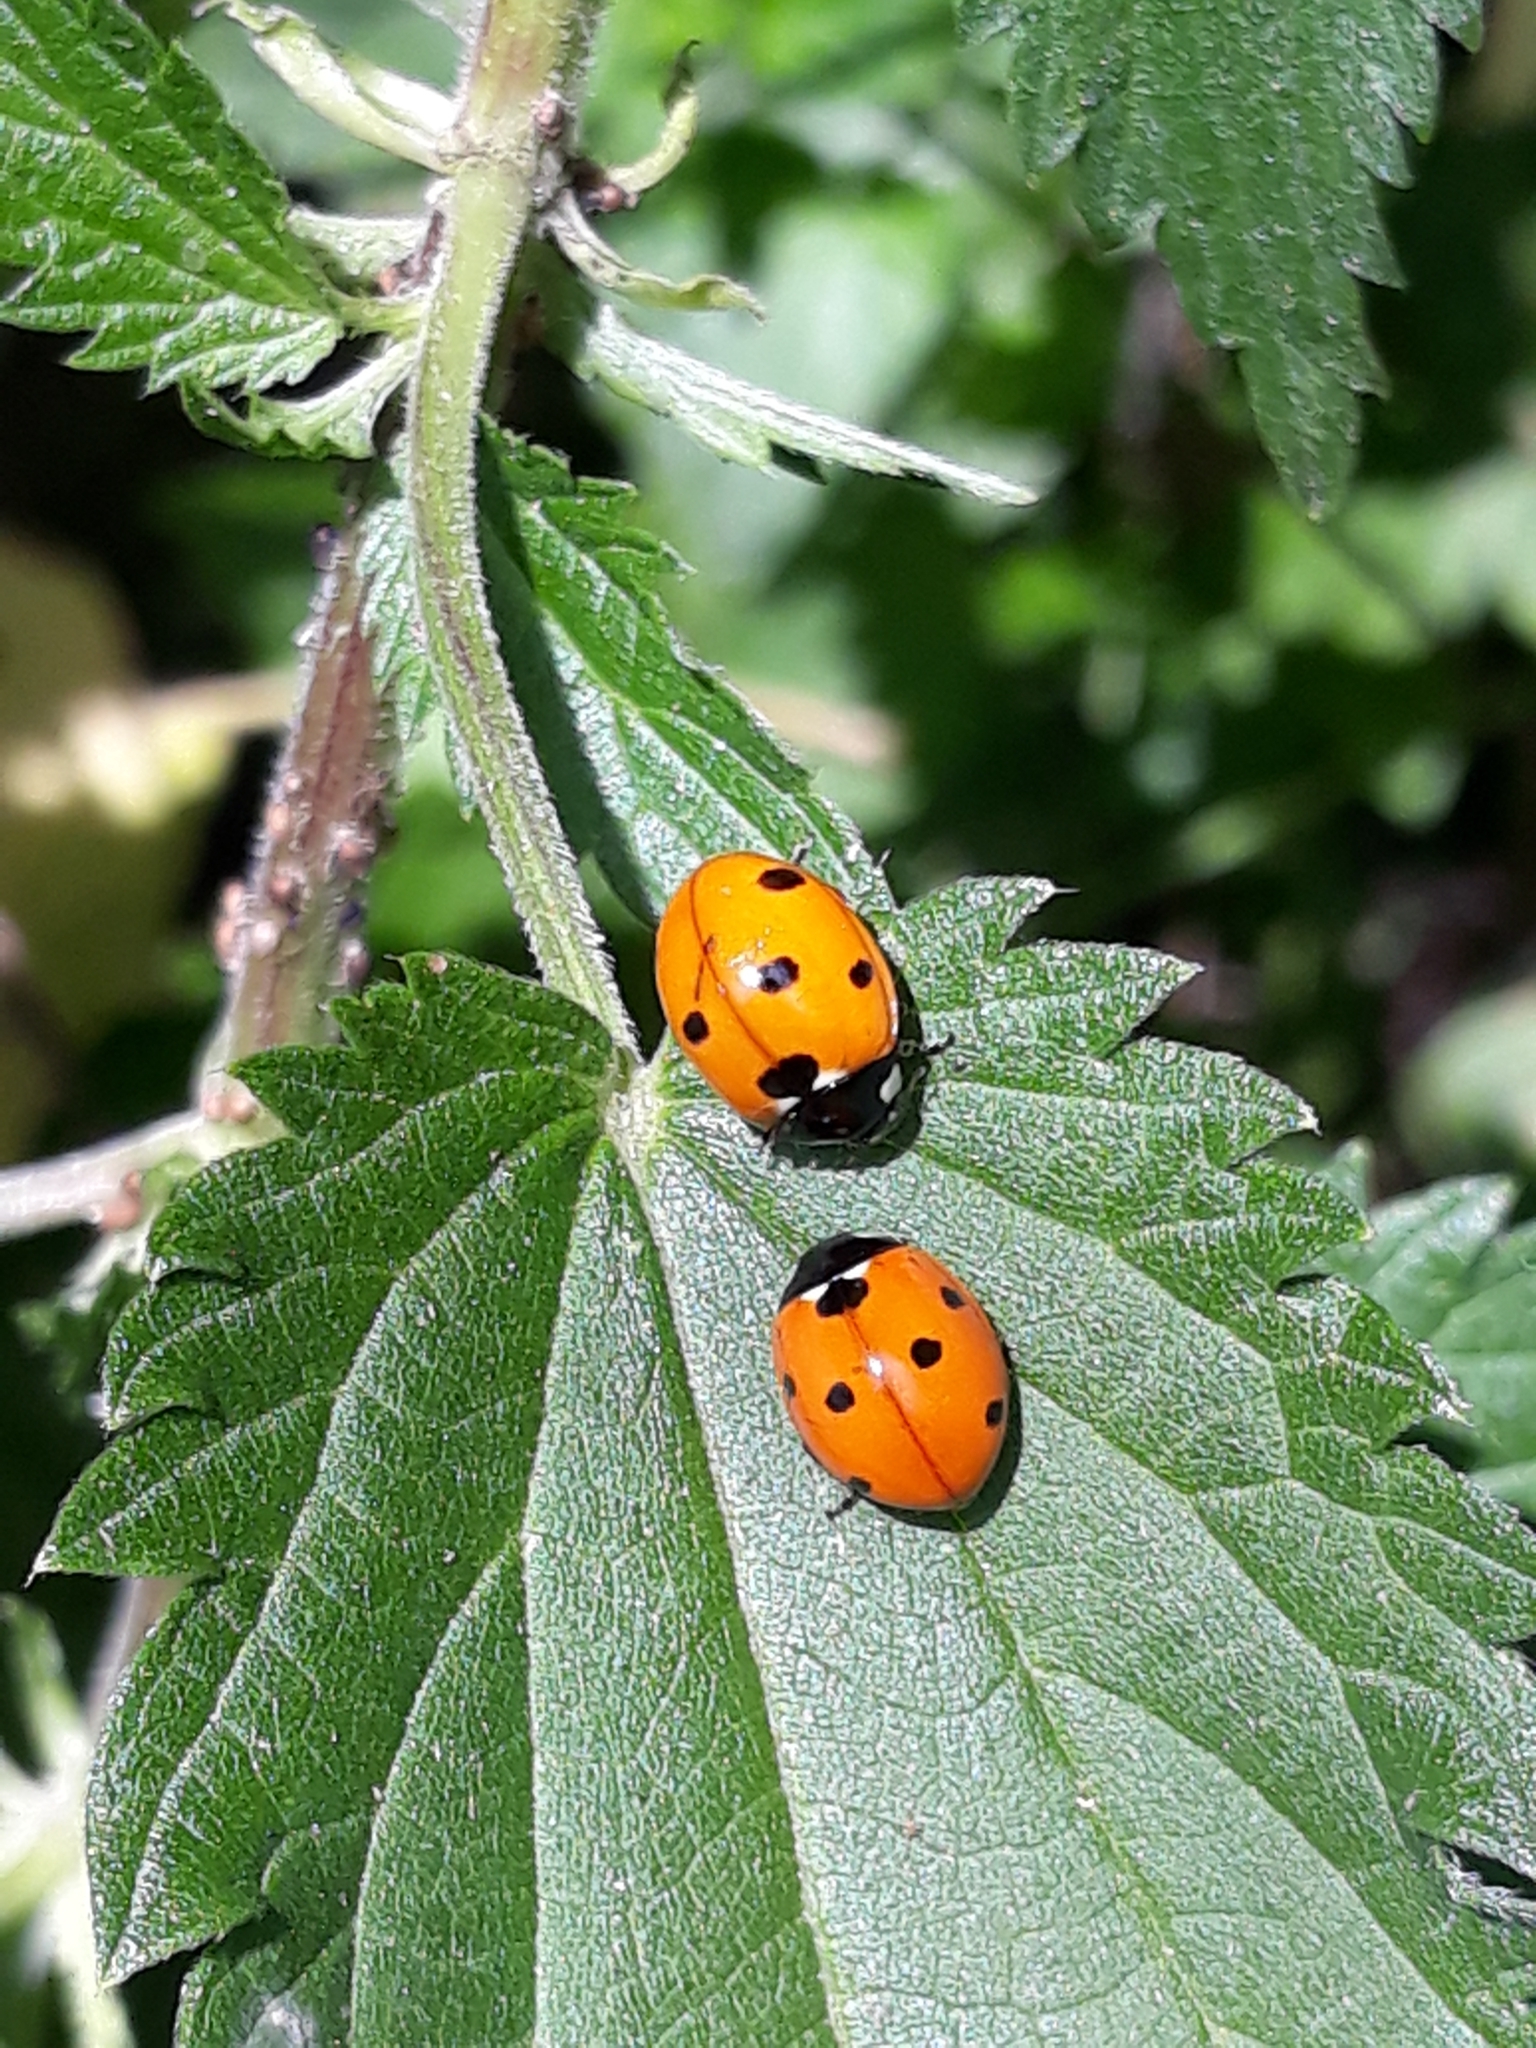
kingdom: Animalia
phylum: Arthropoda
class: Insecta
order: Coleoptera
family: Coccinellidae
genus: Coccinella
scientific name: Coccinella septempunctata
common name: Sevenspotted lady beetle
